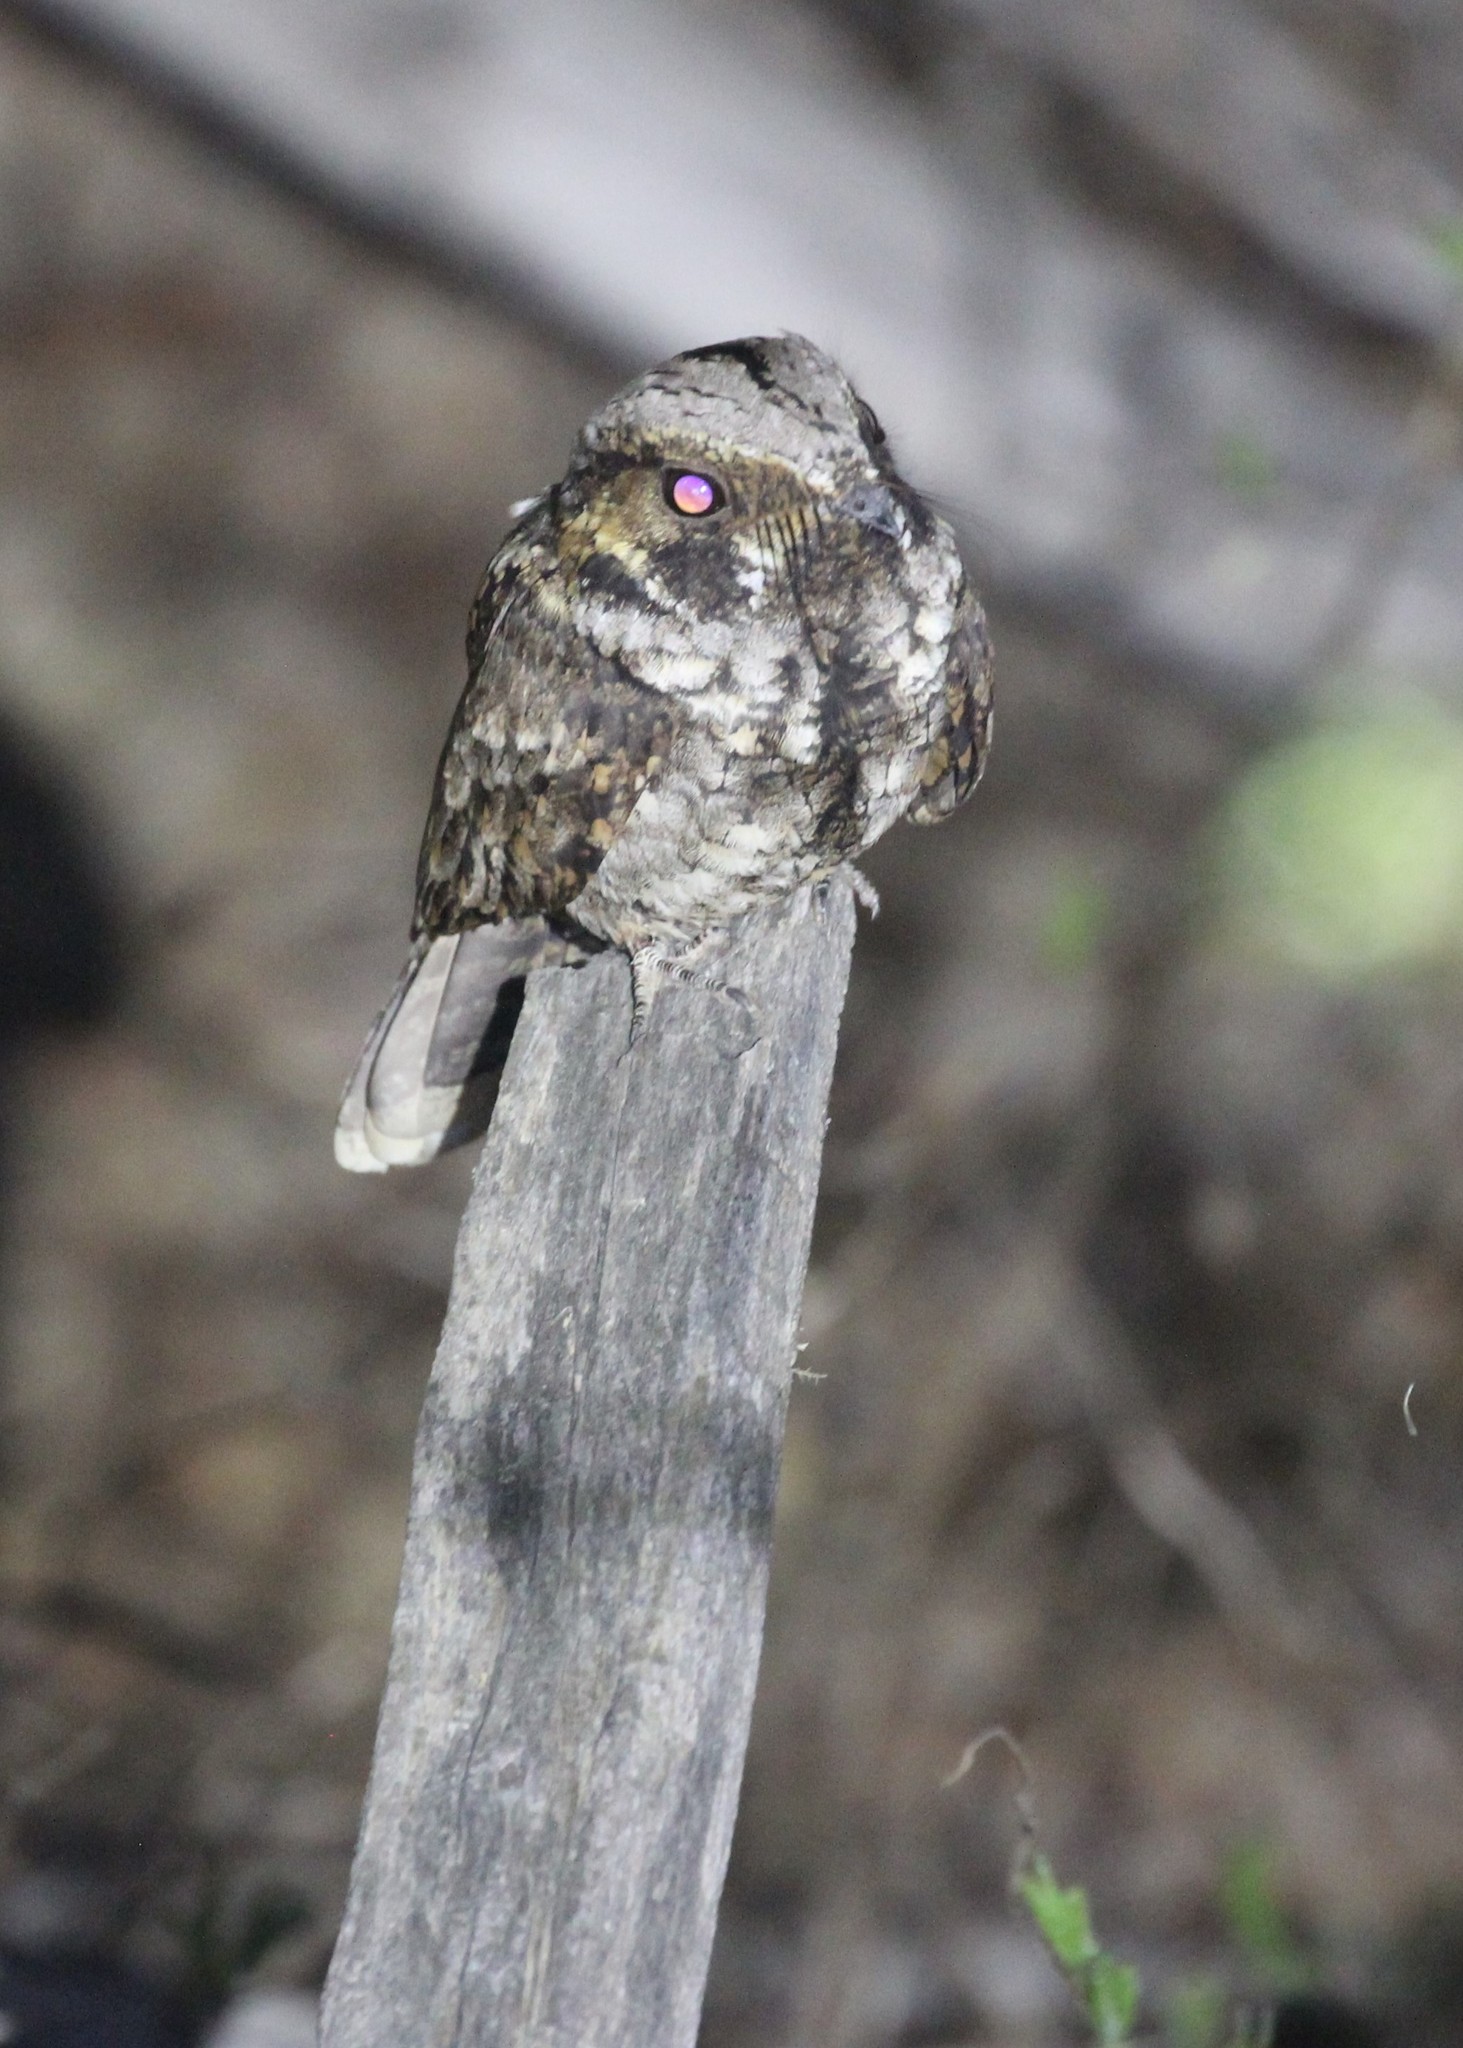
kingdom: Animalia
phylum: Chordata
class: Aves
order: Caprimulgiformes
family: Caprimulgidae
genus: Antrostomus
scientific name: Antrostomus vociferus
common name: Eastern whip-poor-will
